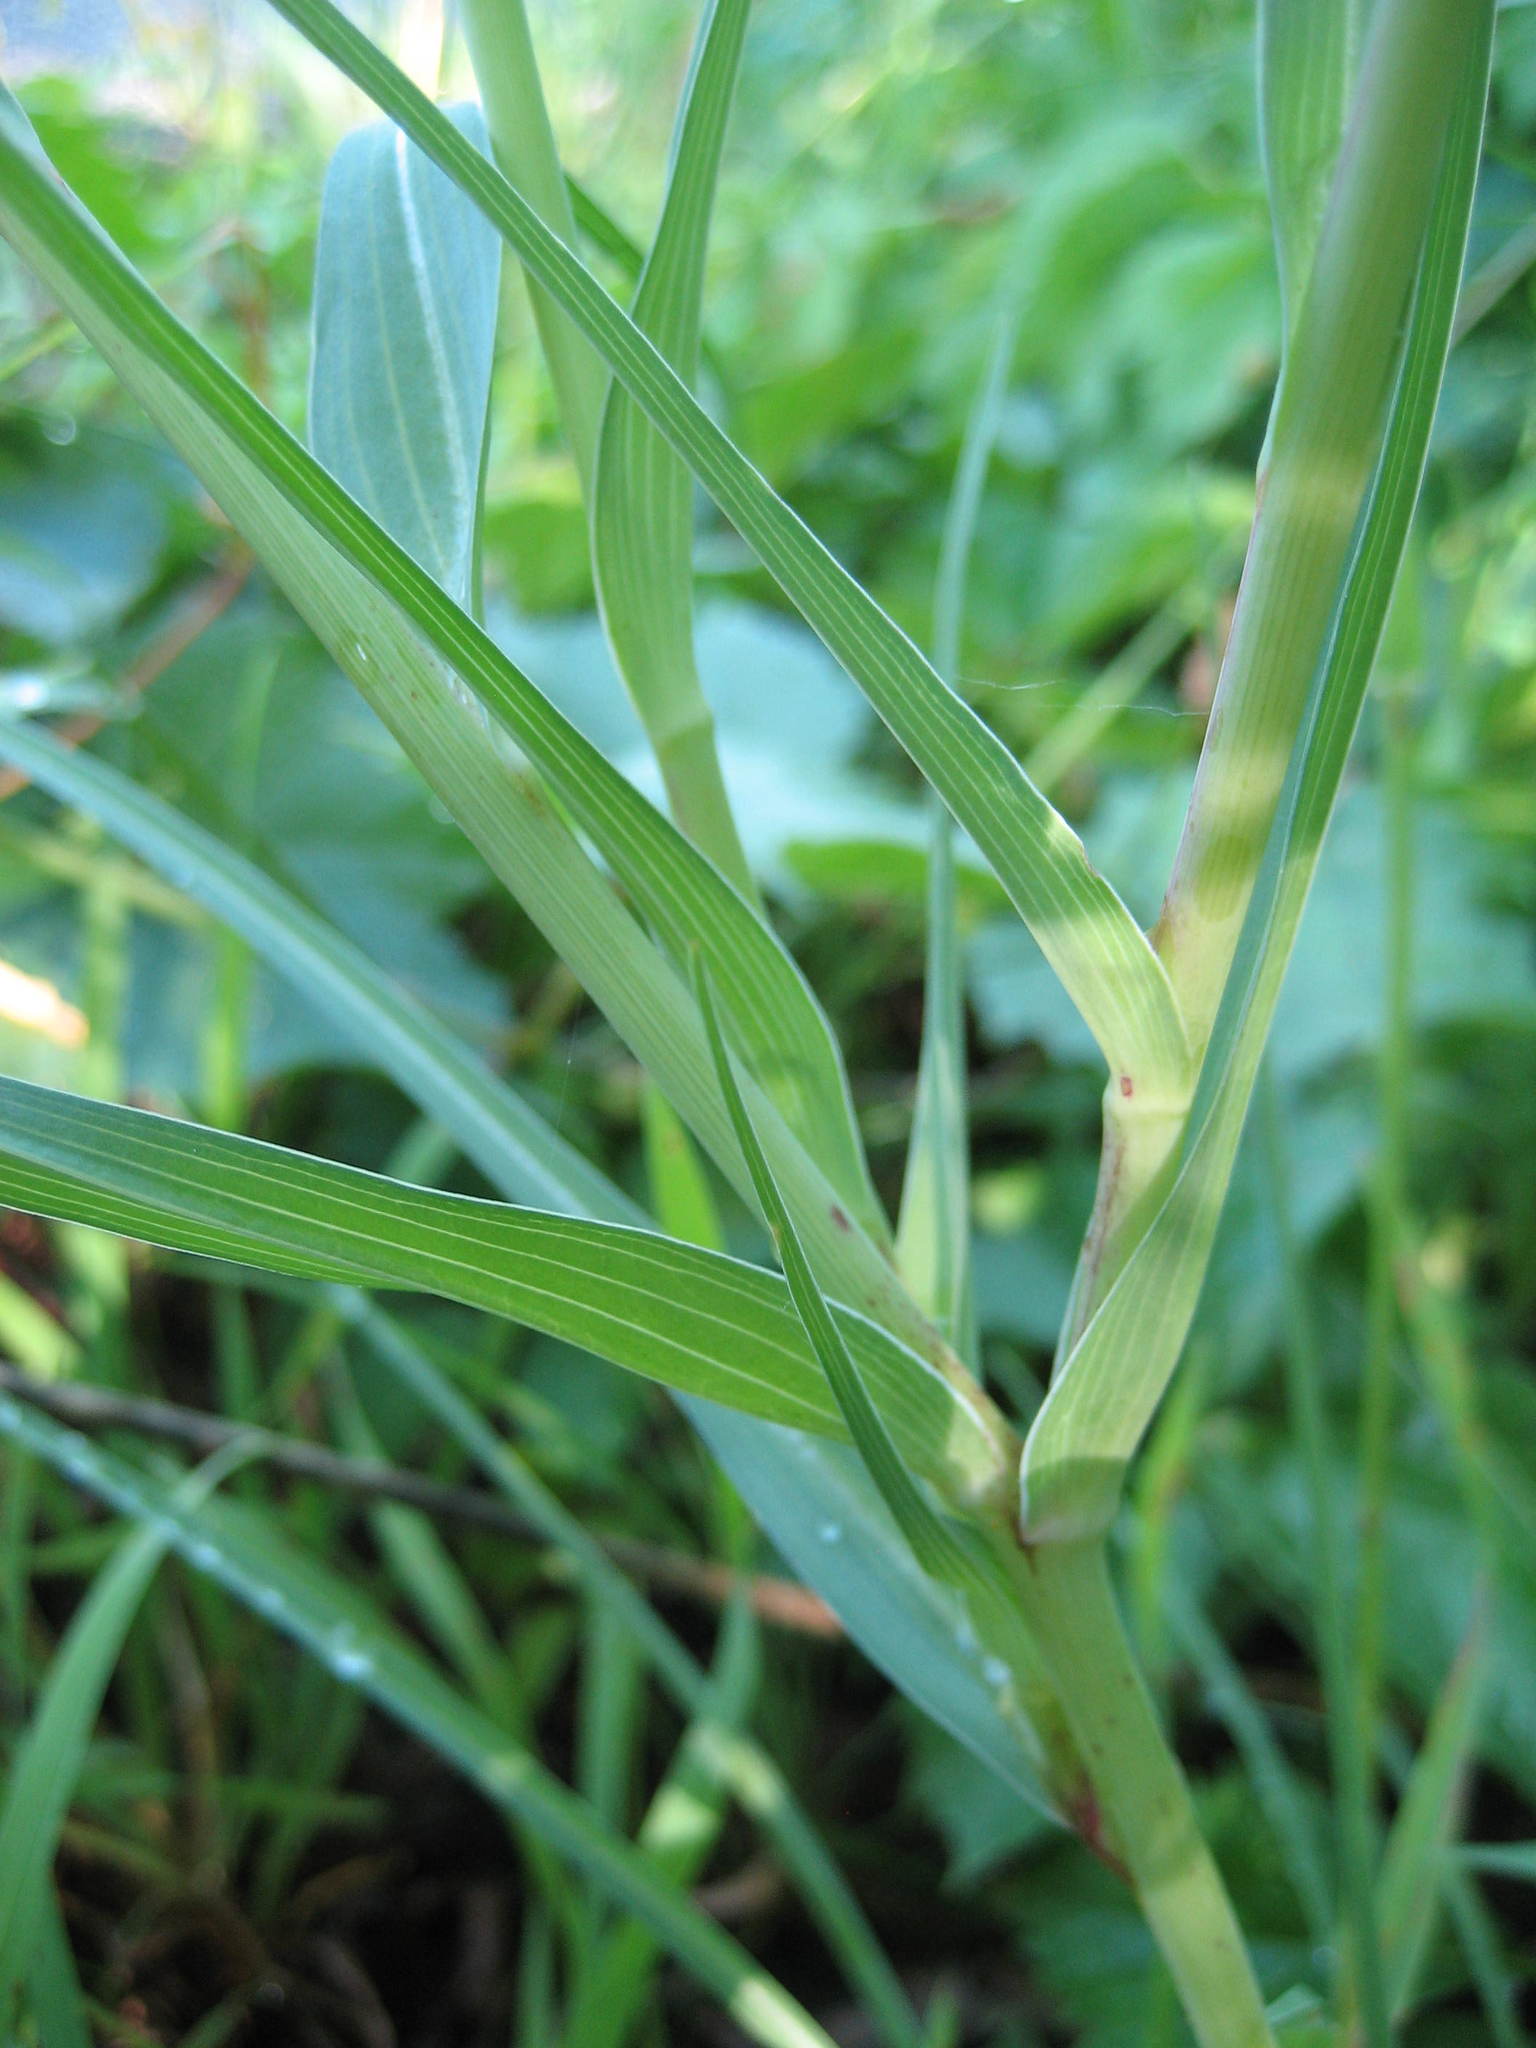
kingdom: Plantae
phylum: Tracheophyta
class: Magnoliopsida
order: Asterales
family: Asteraceae
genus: Tragopogon
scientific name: Tragopogon dubius
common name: Yellow salsify
